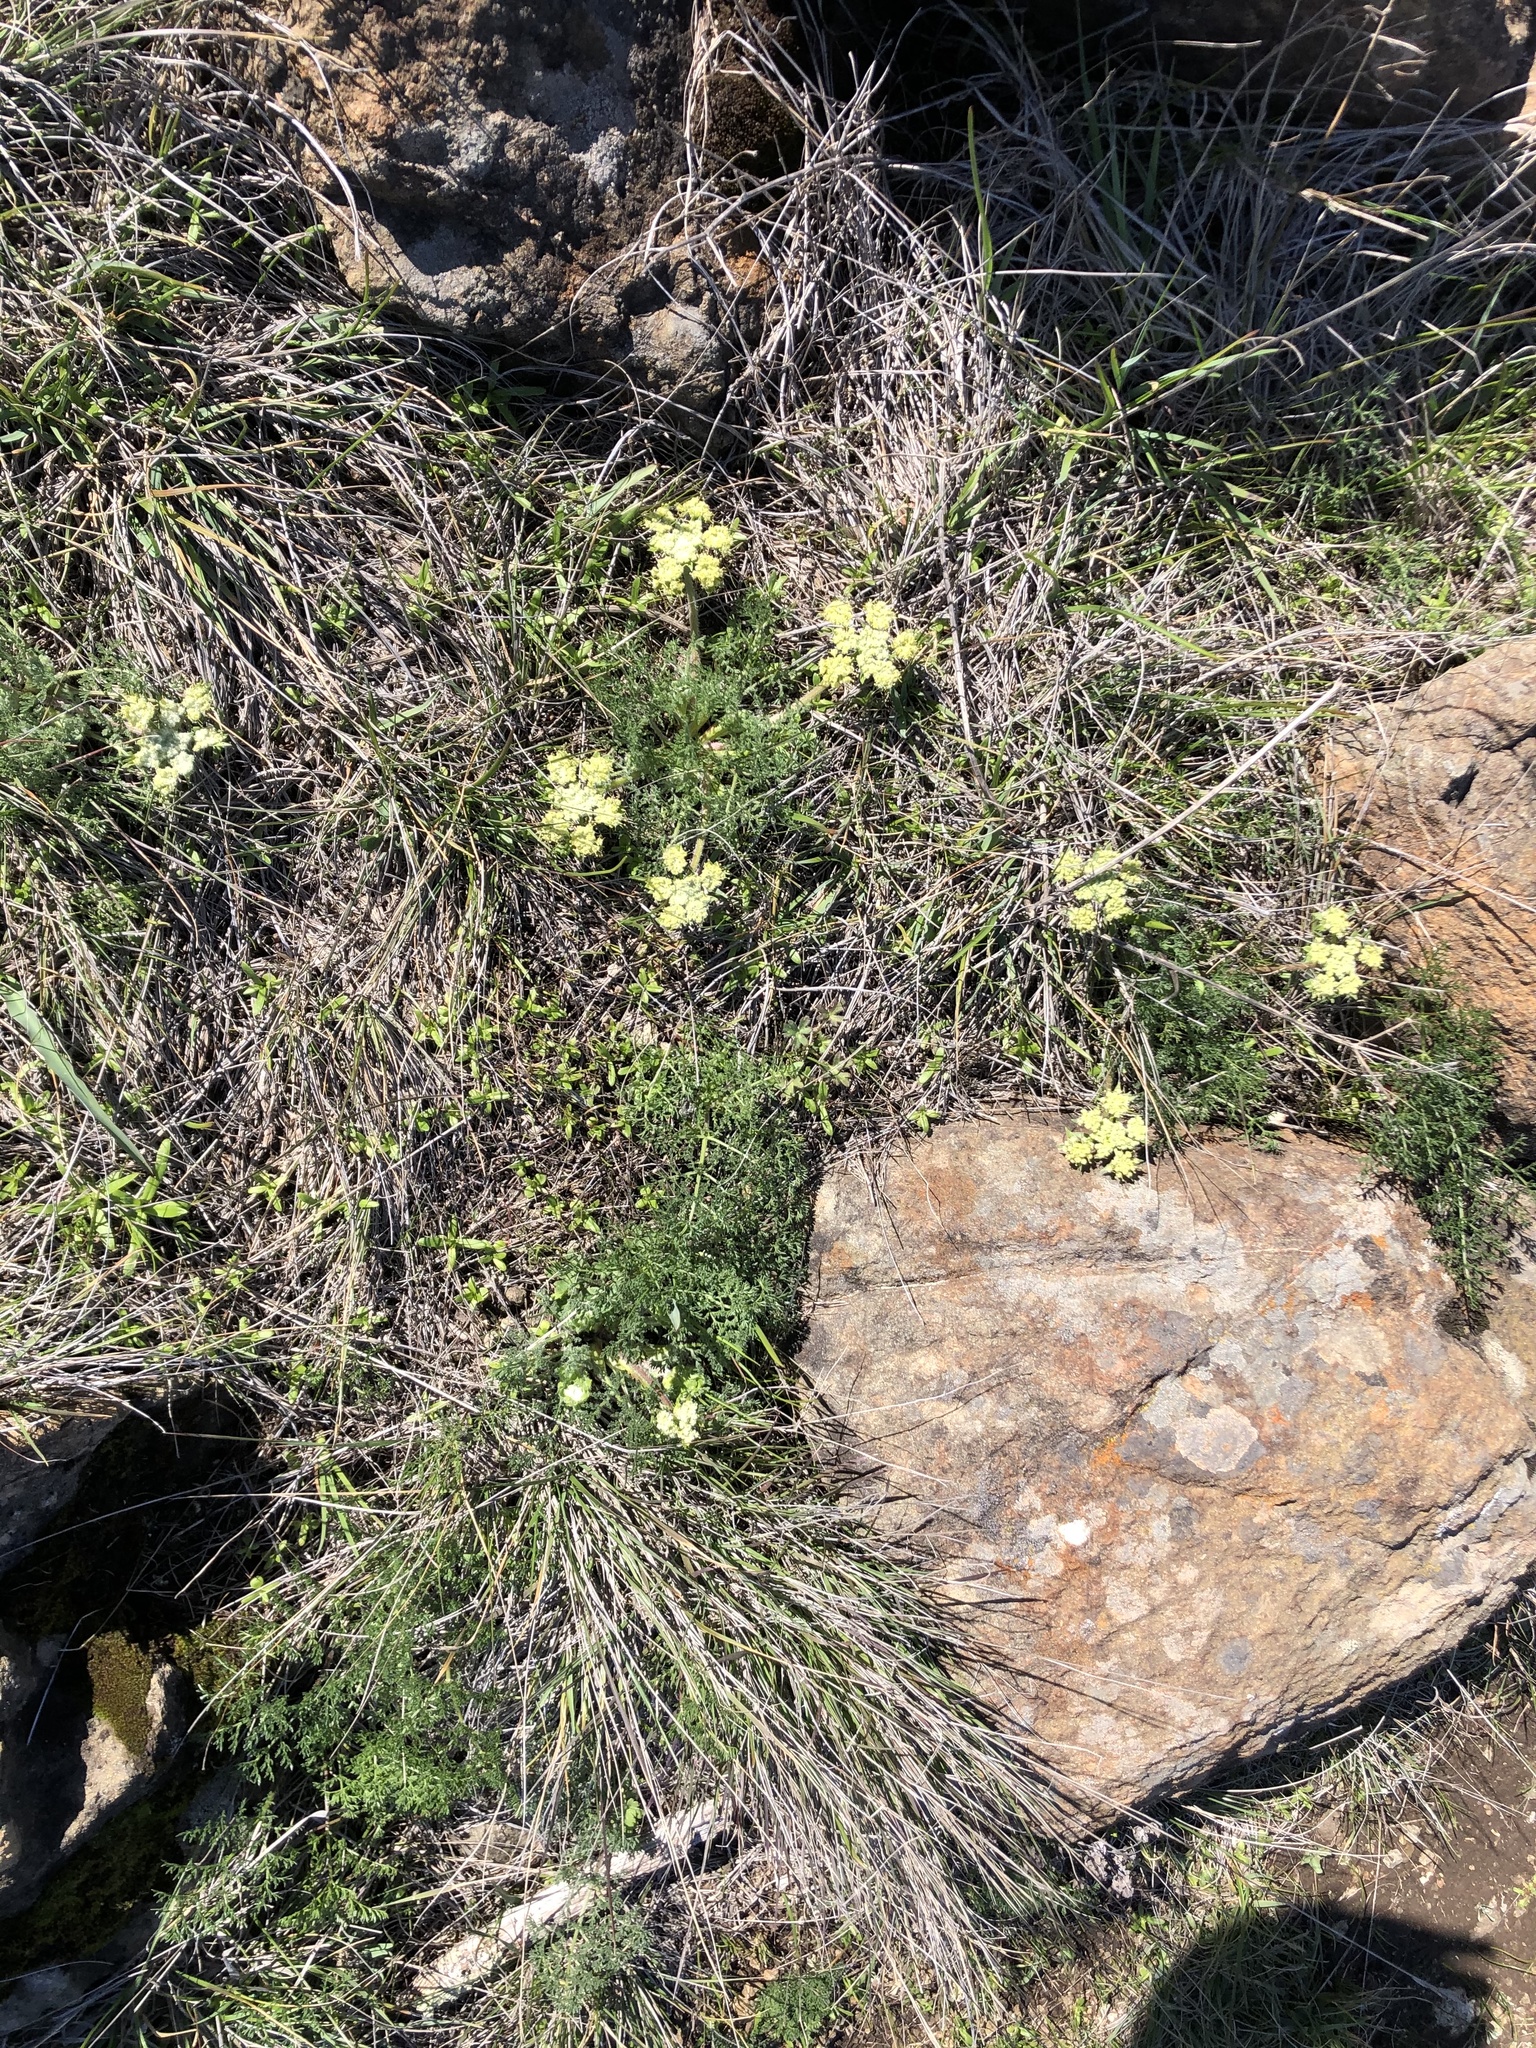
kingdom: Plantae
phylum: Tracheophyta
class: Magnoliopsida
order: Apiales
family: Apiaceae
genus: Lomatium
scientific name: Lomatium dasycarpum
